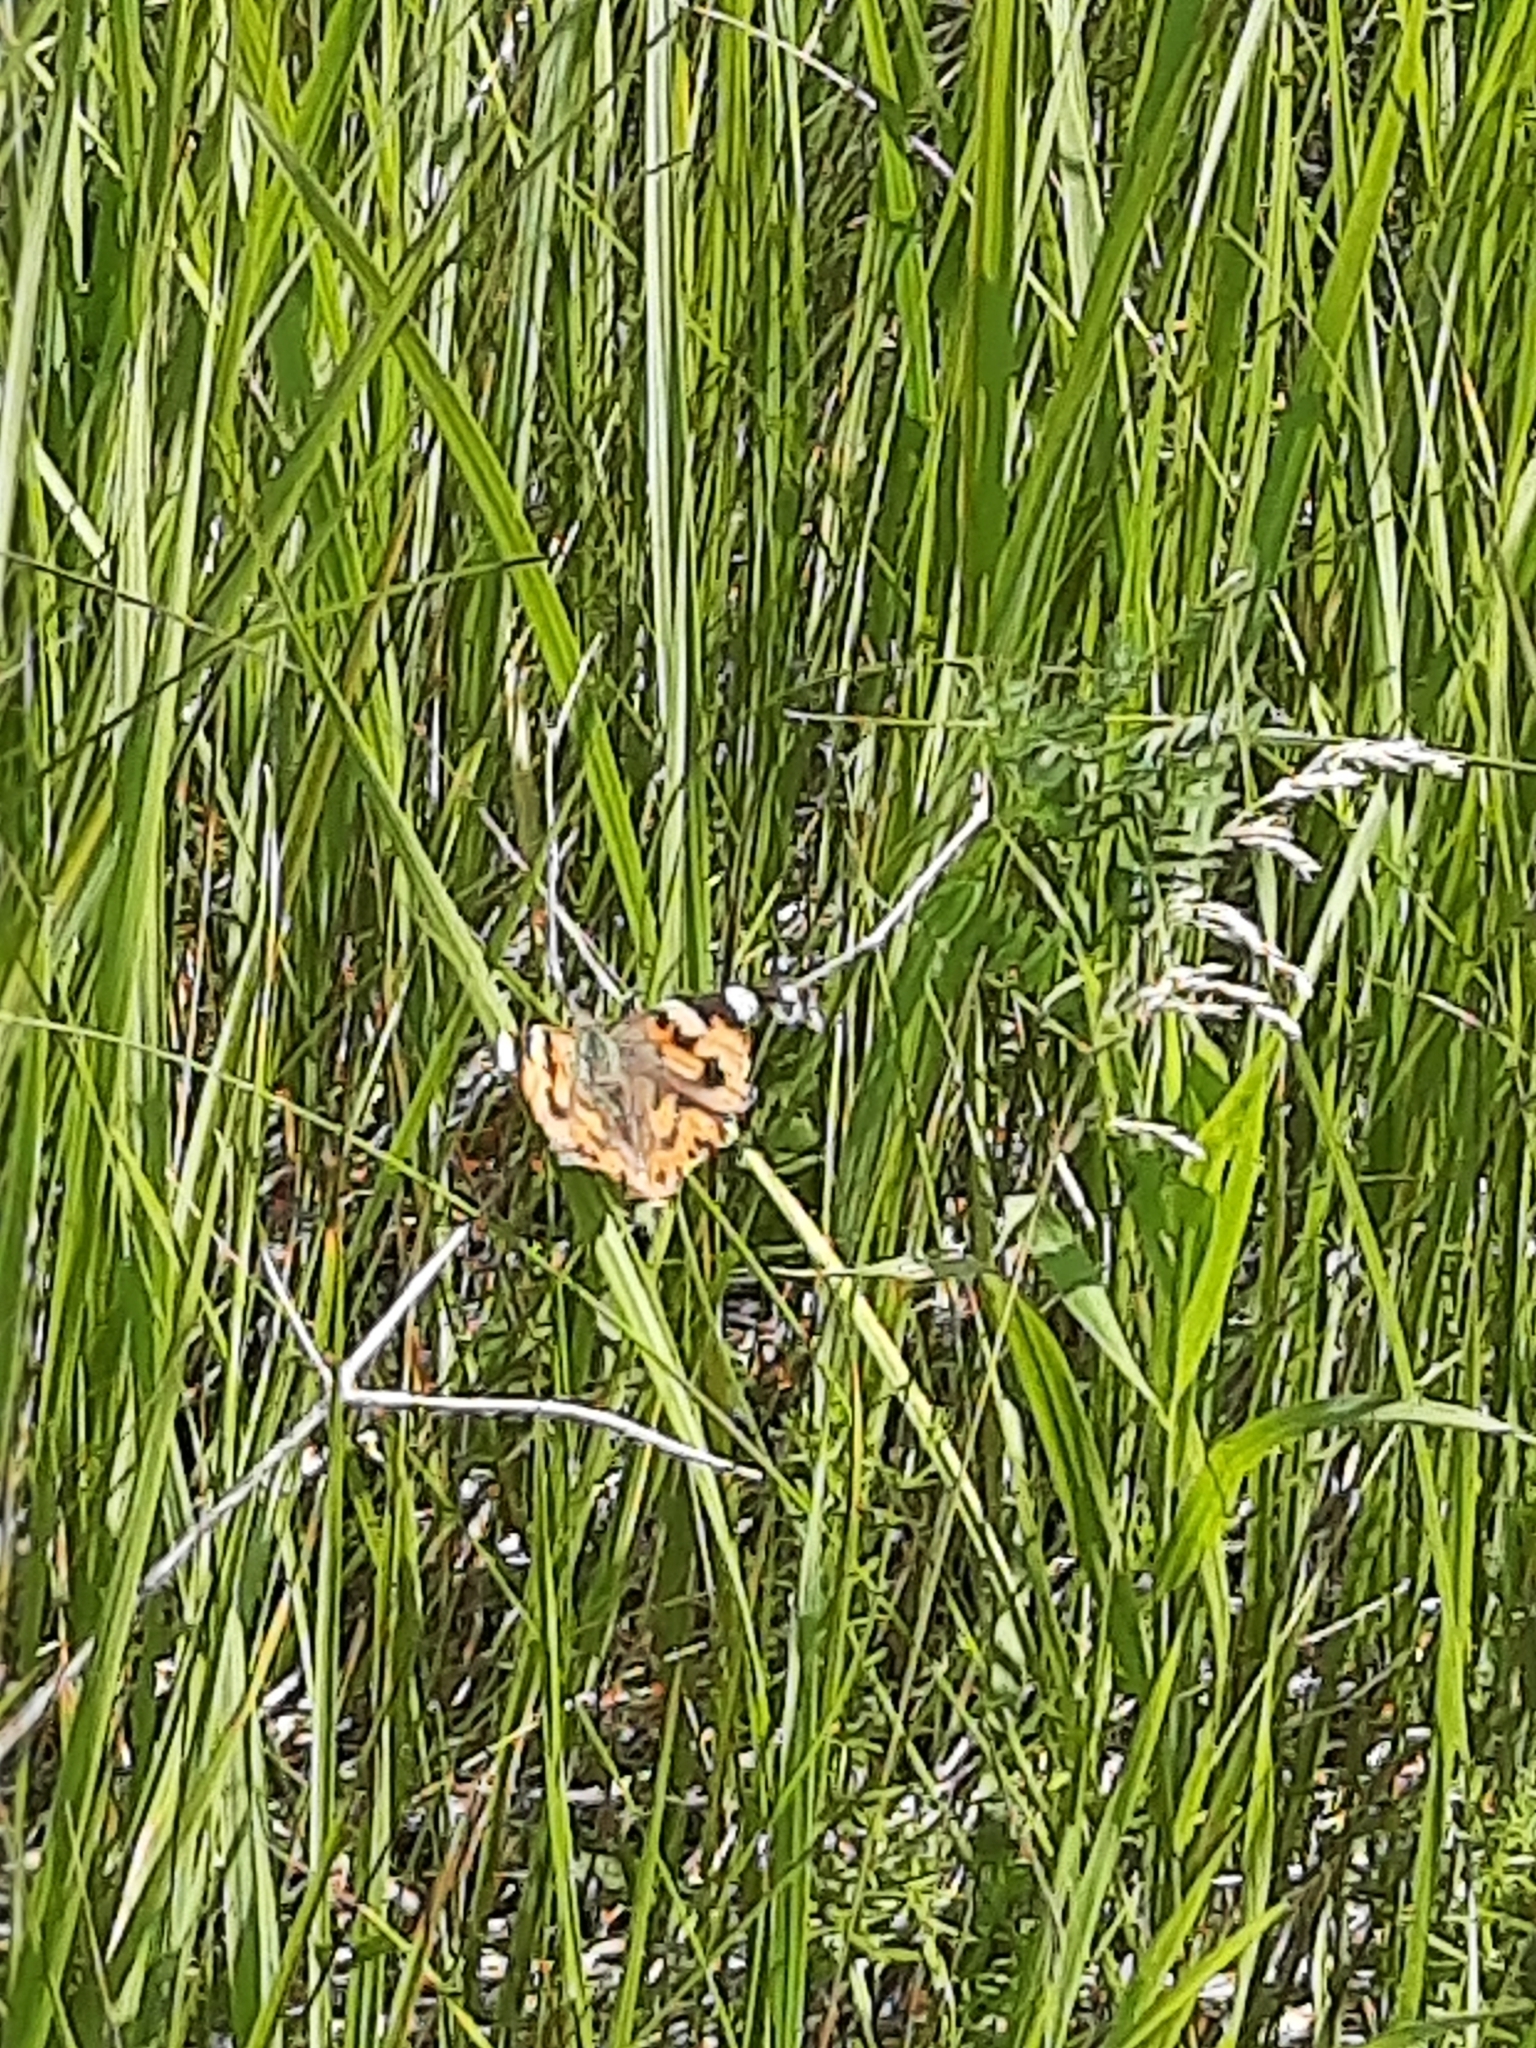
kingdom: Animalia
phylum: Arthropoda
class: Insecta
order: Lepidoptera
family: Nymphalidae
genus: Aglais
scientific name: Aglais urticae
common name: Small tortoiseshell
